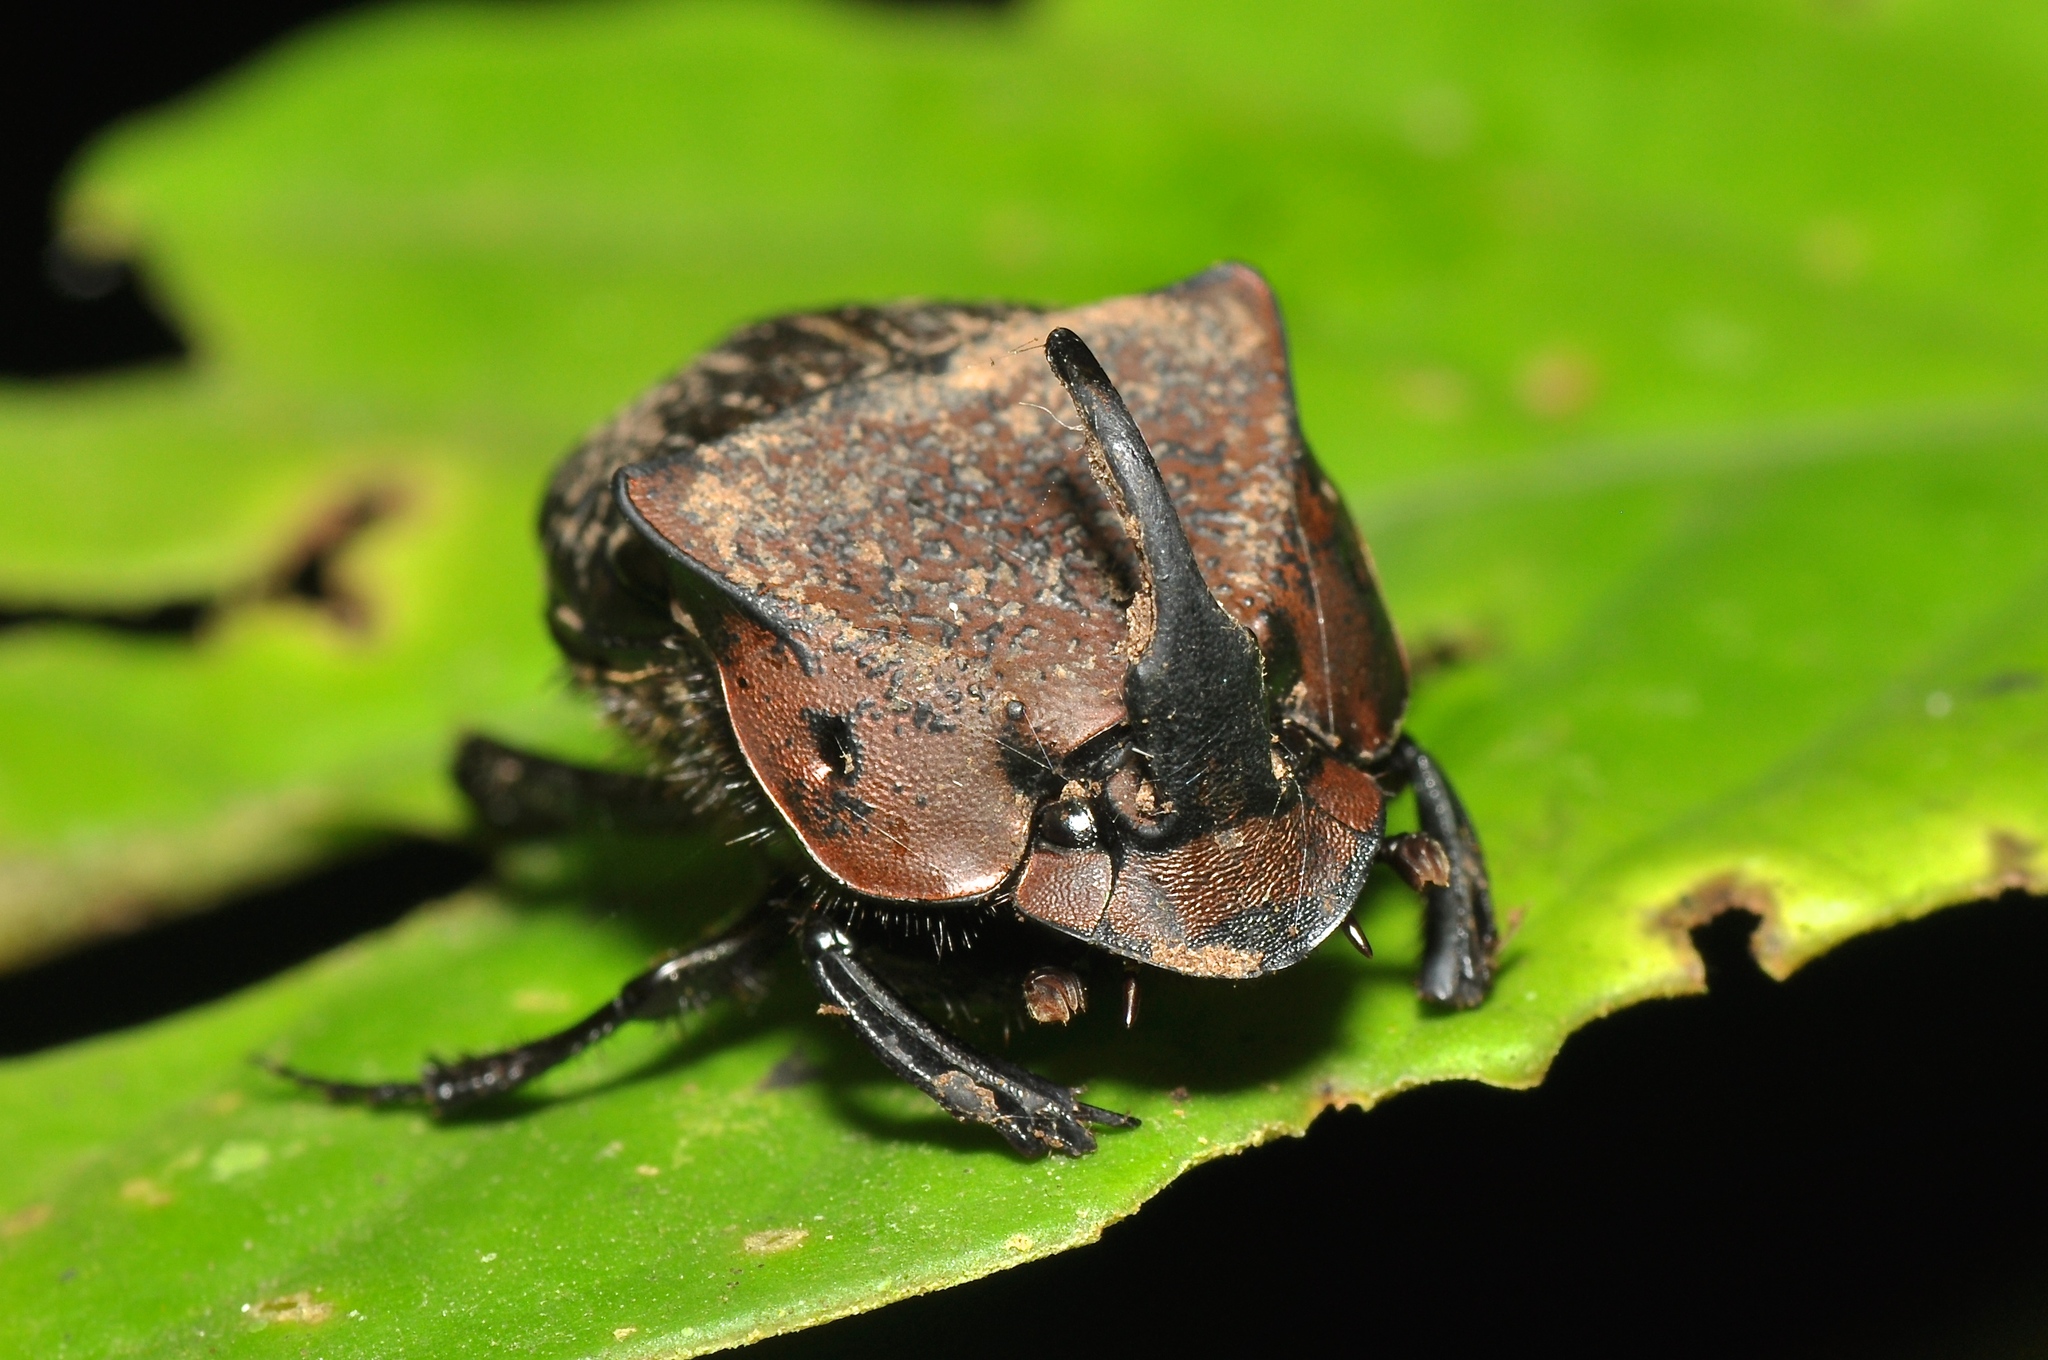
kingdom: Animalia
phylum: Arthropoda
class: Insecta
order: Coleoptera
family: Scarabaeidae
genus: Phanaeus
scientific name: Phanaeus chalcomelas
